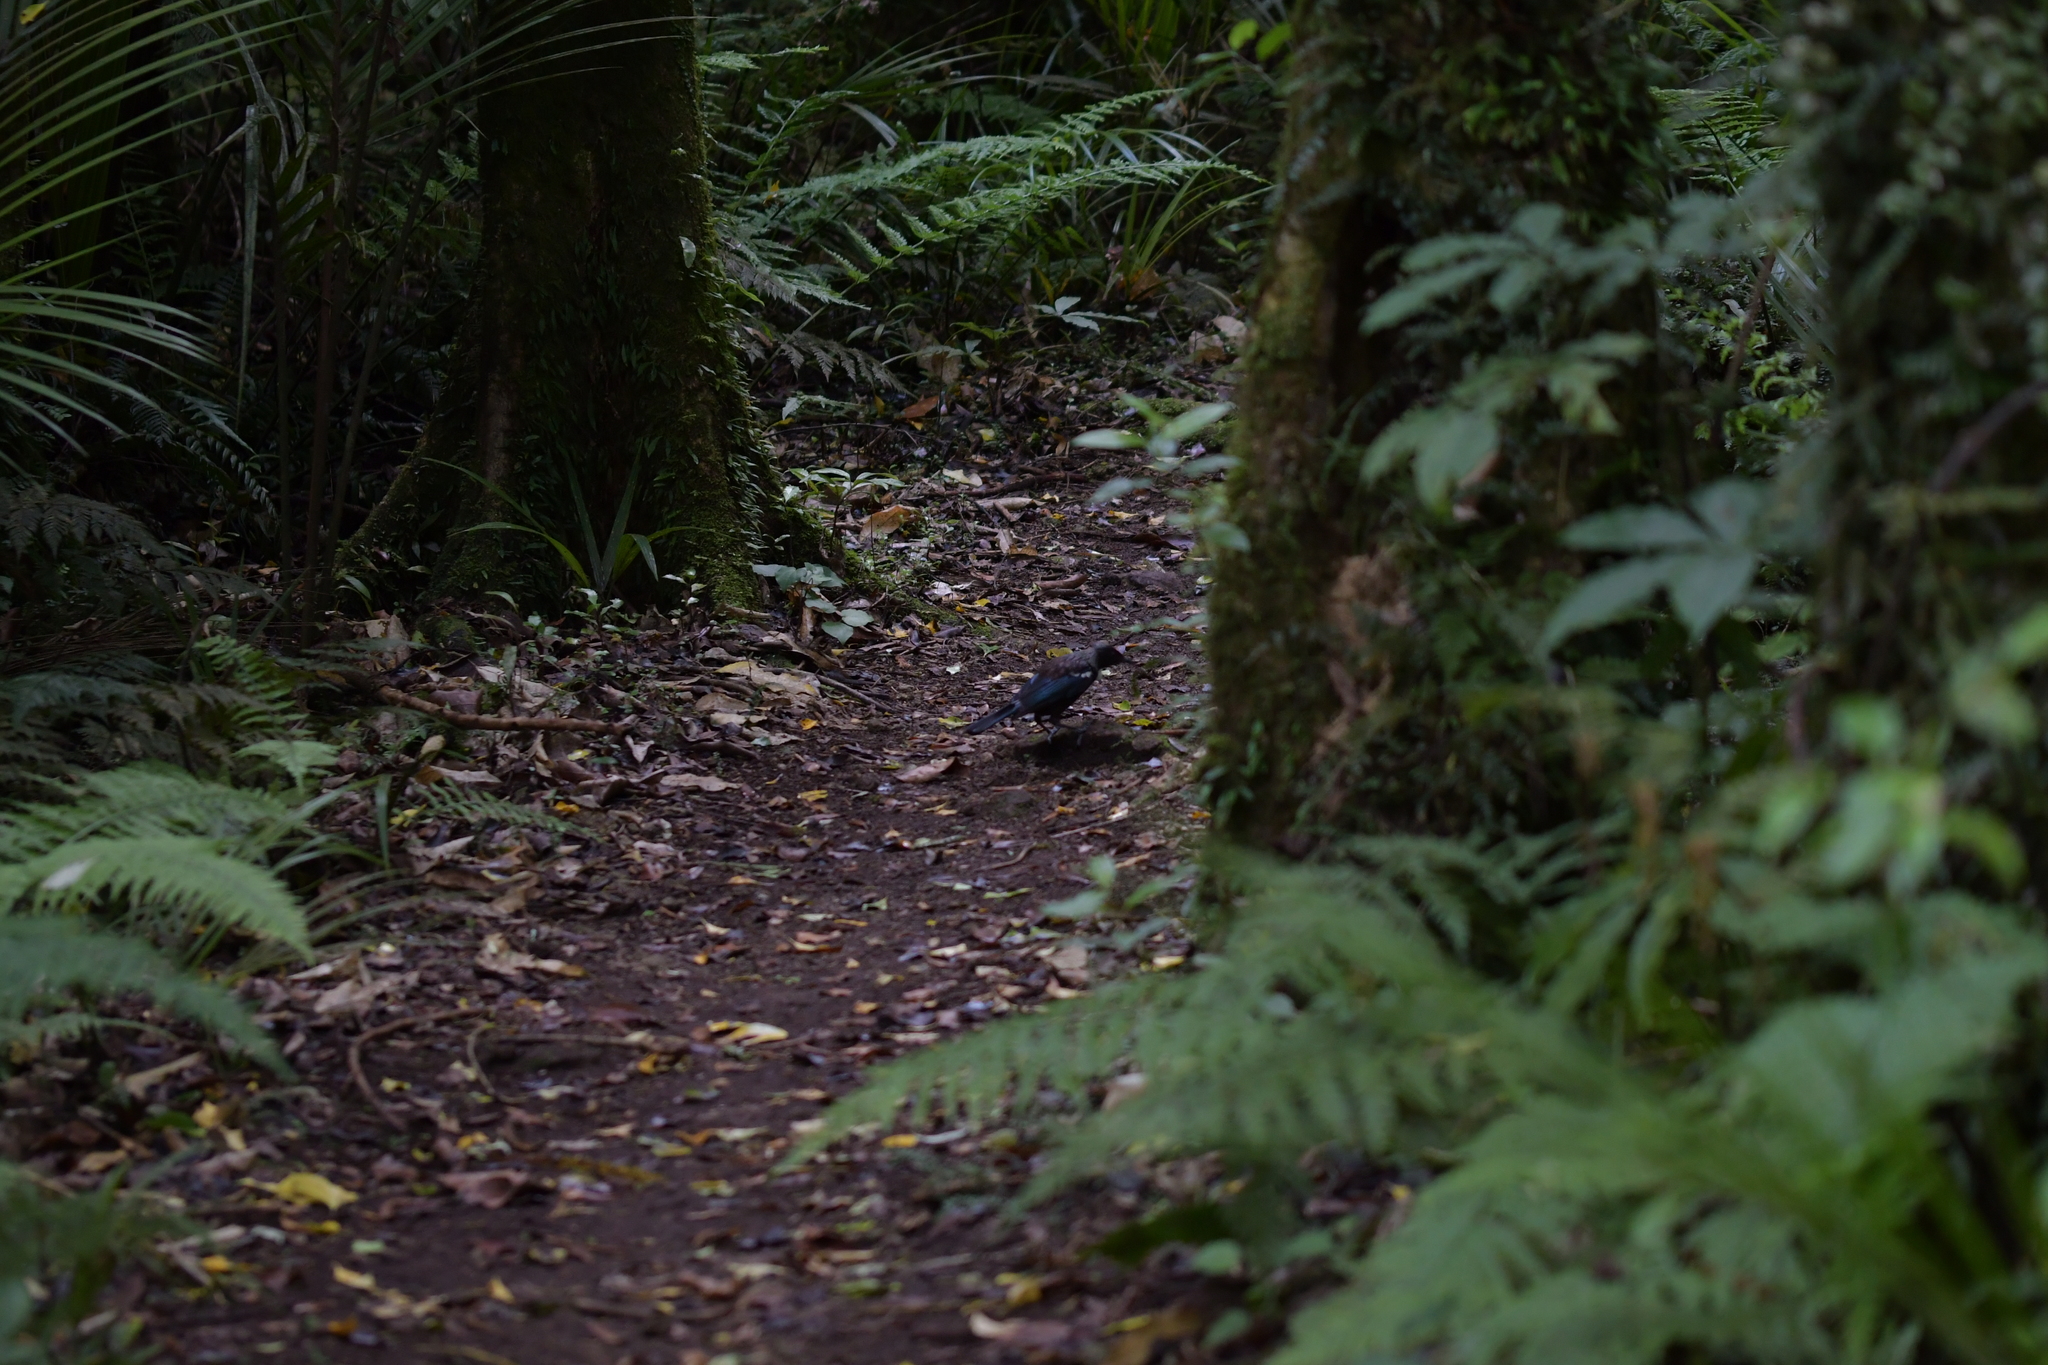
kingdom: Animalia
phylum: Chordata
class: Aves
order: Passeriformes
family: Meliphagidae
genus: Prosthemadera
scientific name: Prosthemadera novaeseelandiae
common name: Tui
